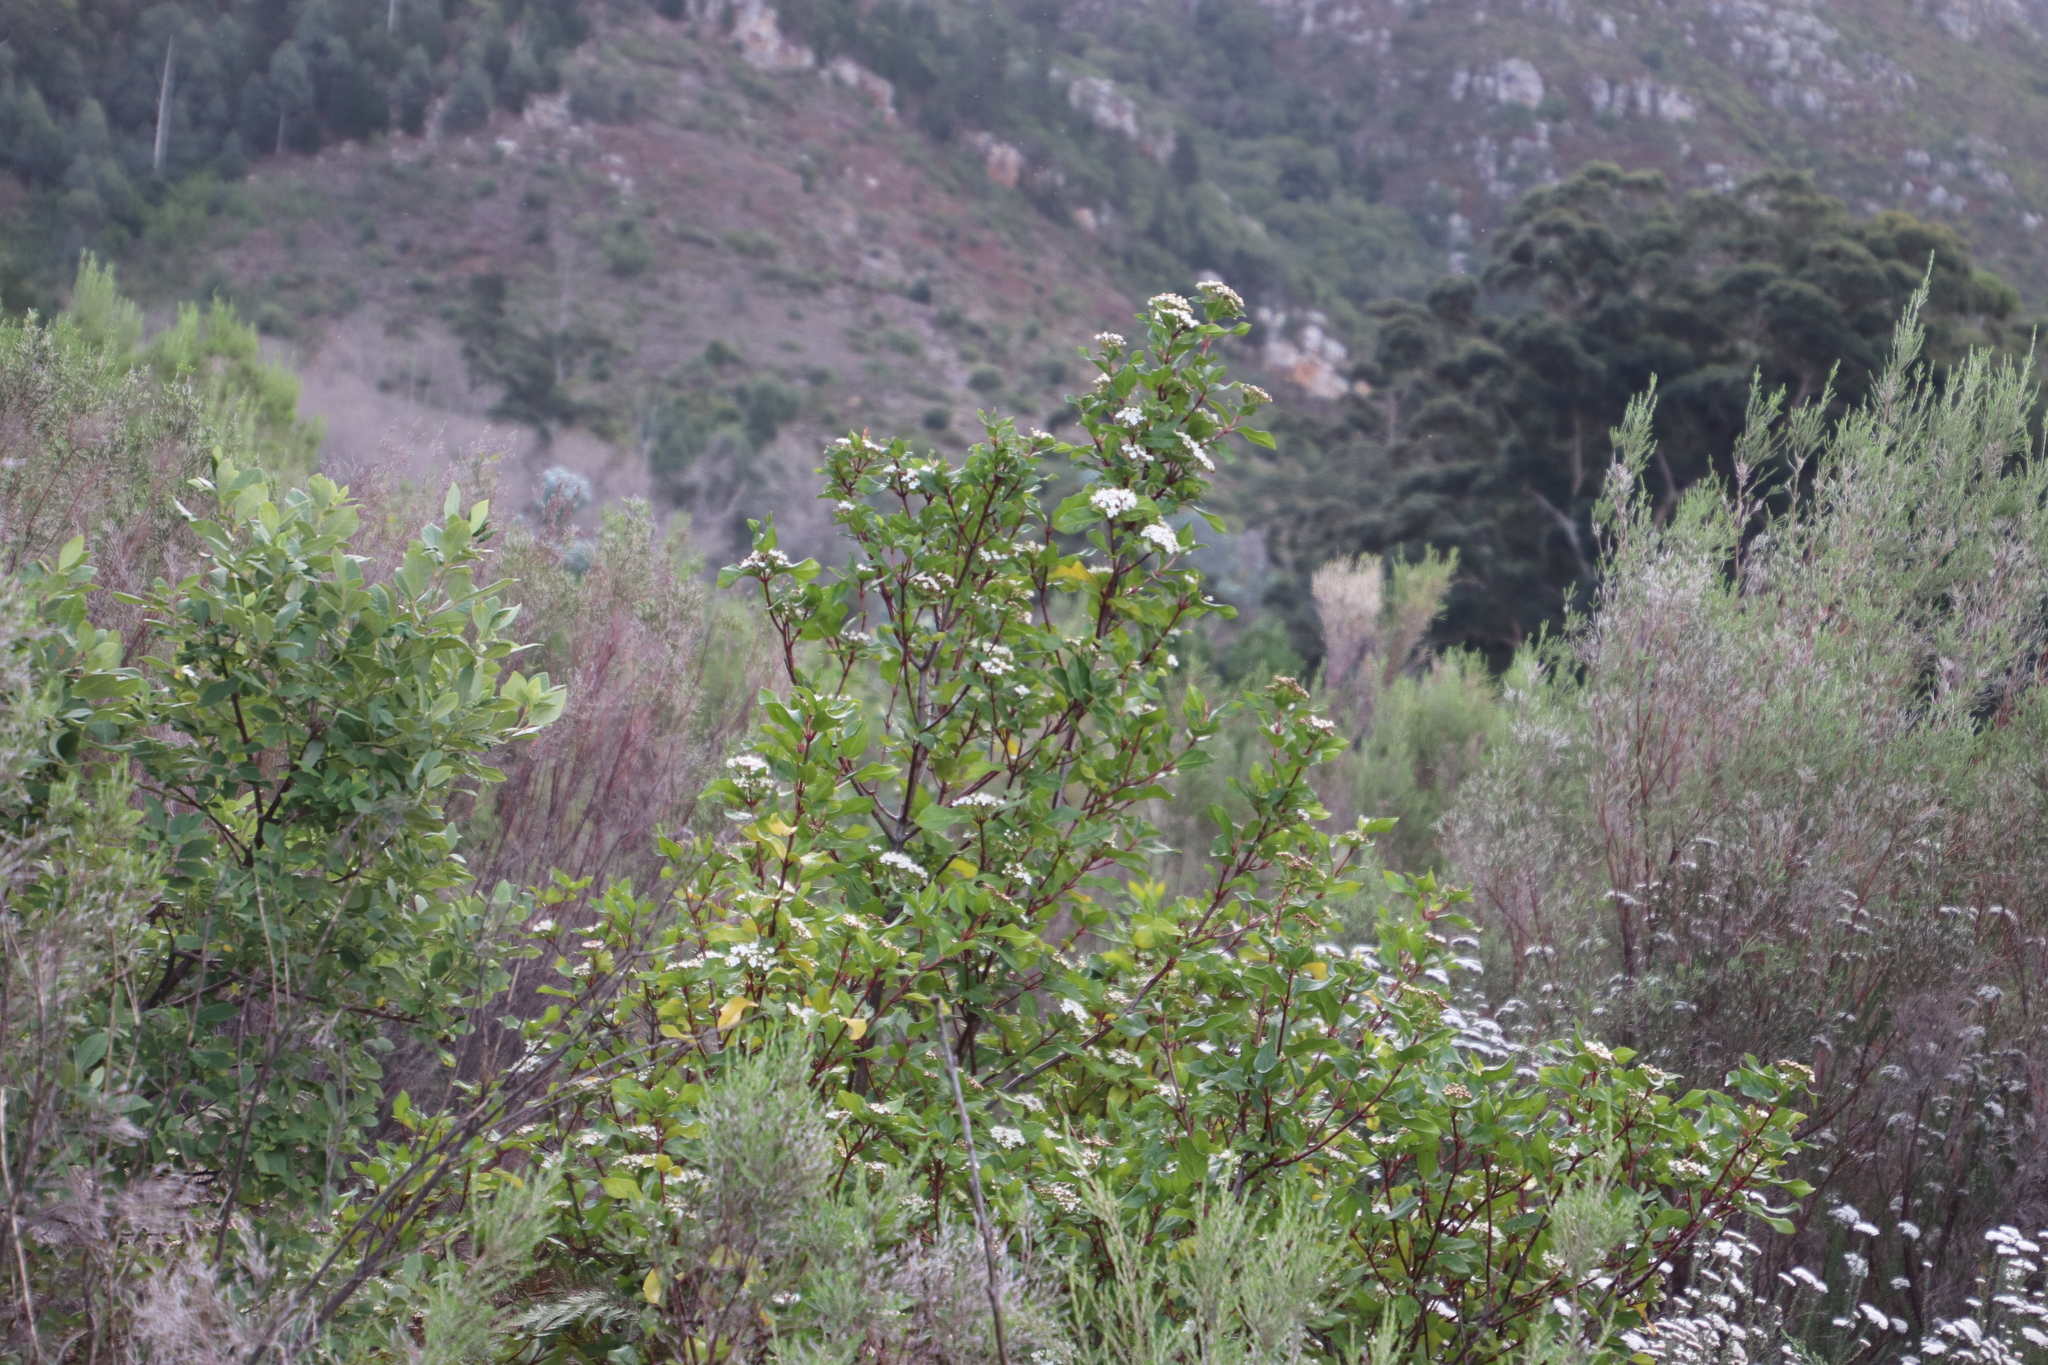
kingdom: Plantae
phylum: Tracheophyta
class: Magnoliopsida
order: Dipsacales
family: Viburnaceae
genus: Viburnum
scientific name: Viburnum tinus
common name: Laurustinus
